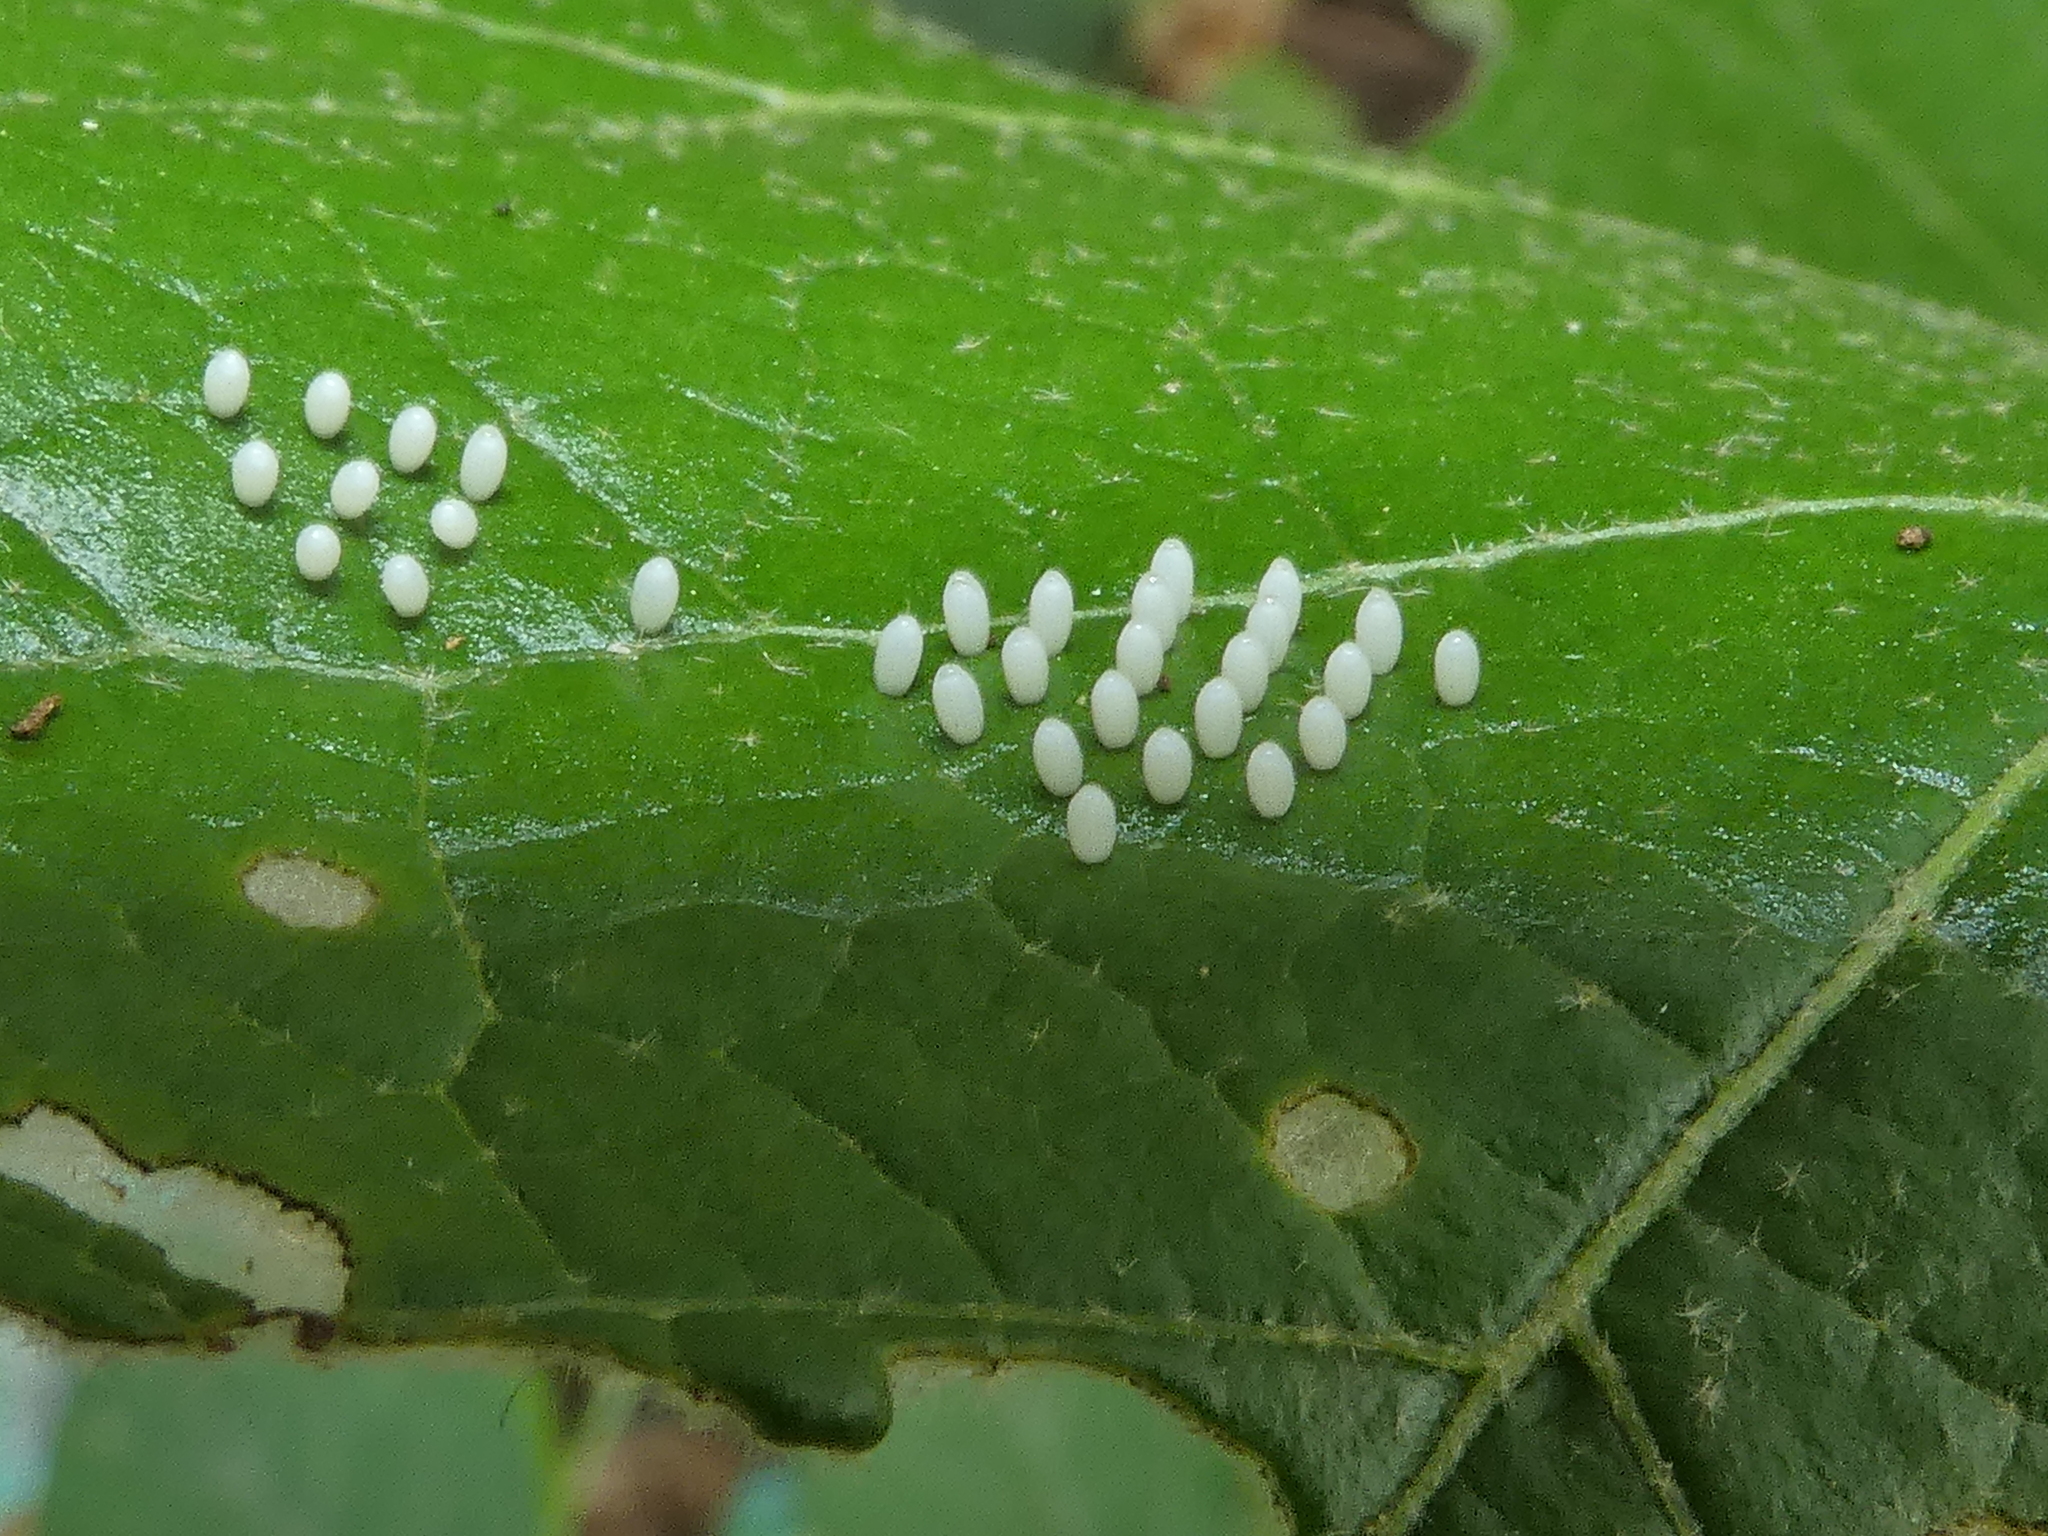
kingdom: Animalia
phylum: Arthropoda
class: Insecta
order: Lepidoptera
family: Nymphalidae
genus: Mechanitis
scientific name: Mechanitis lysimnia
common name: Lysimnia tigerwing
